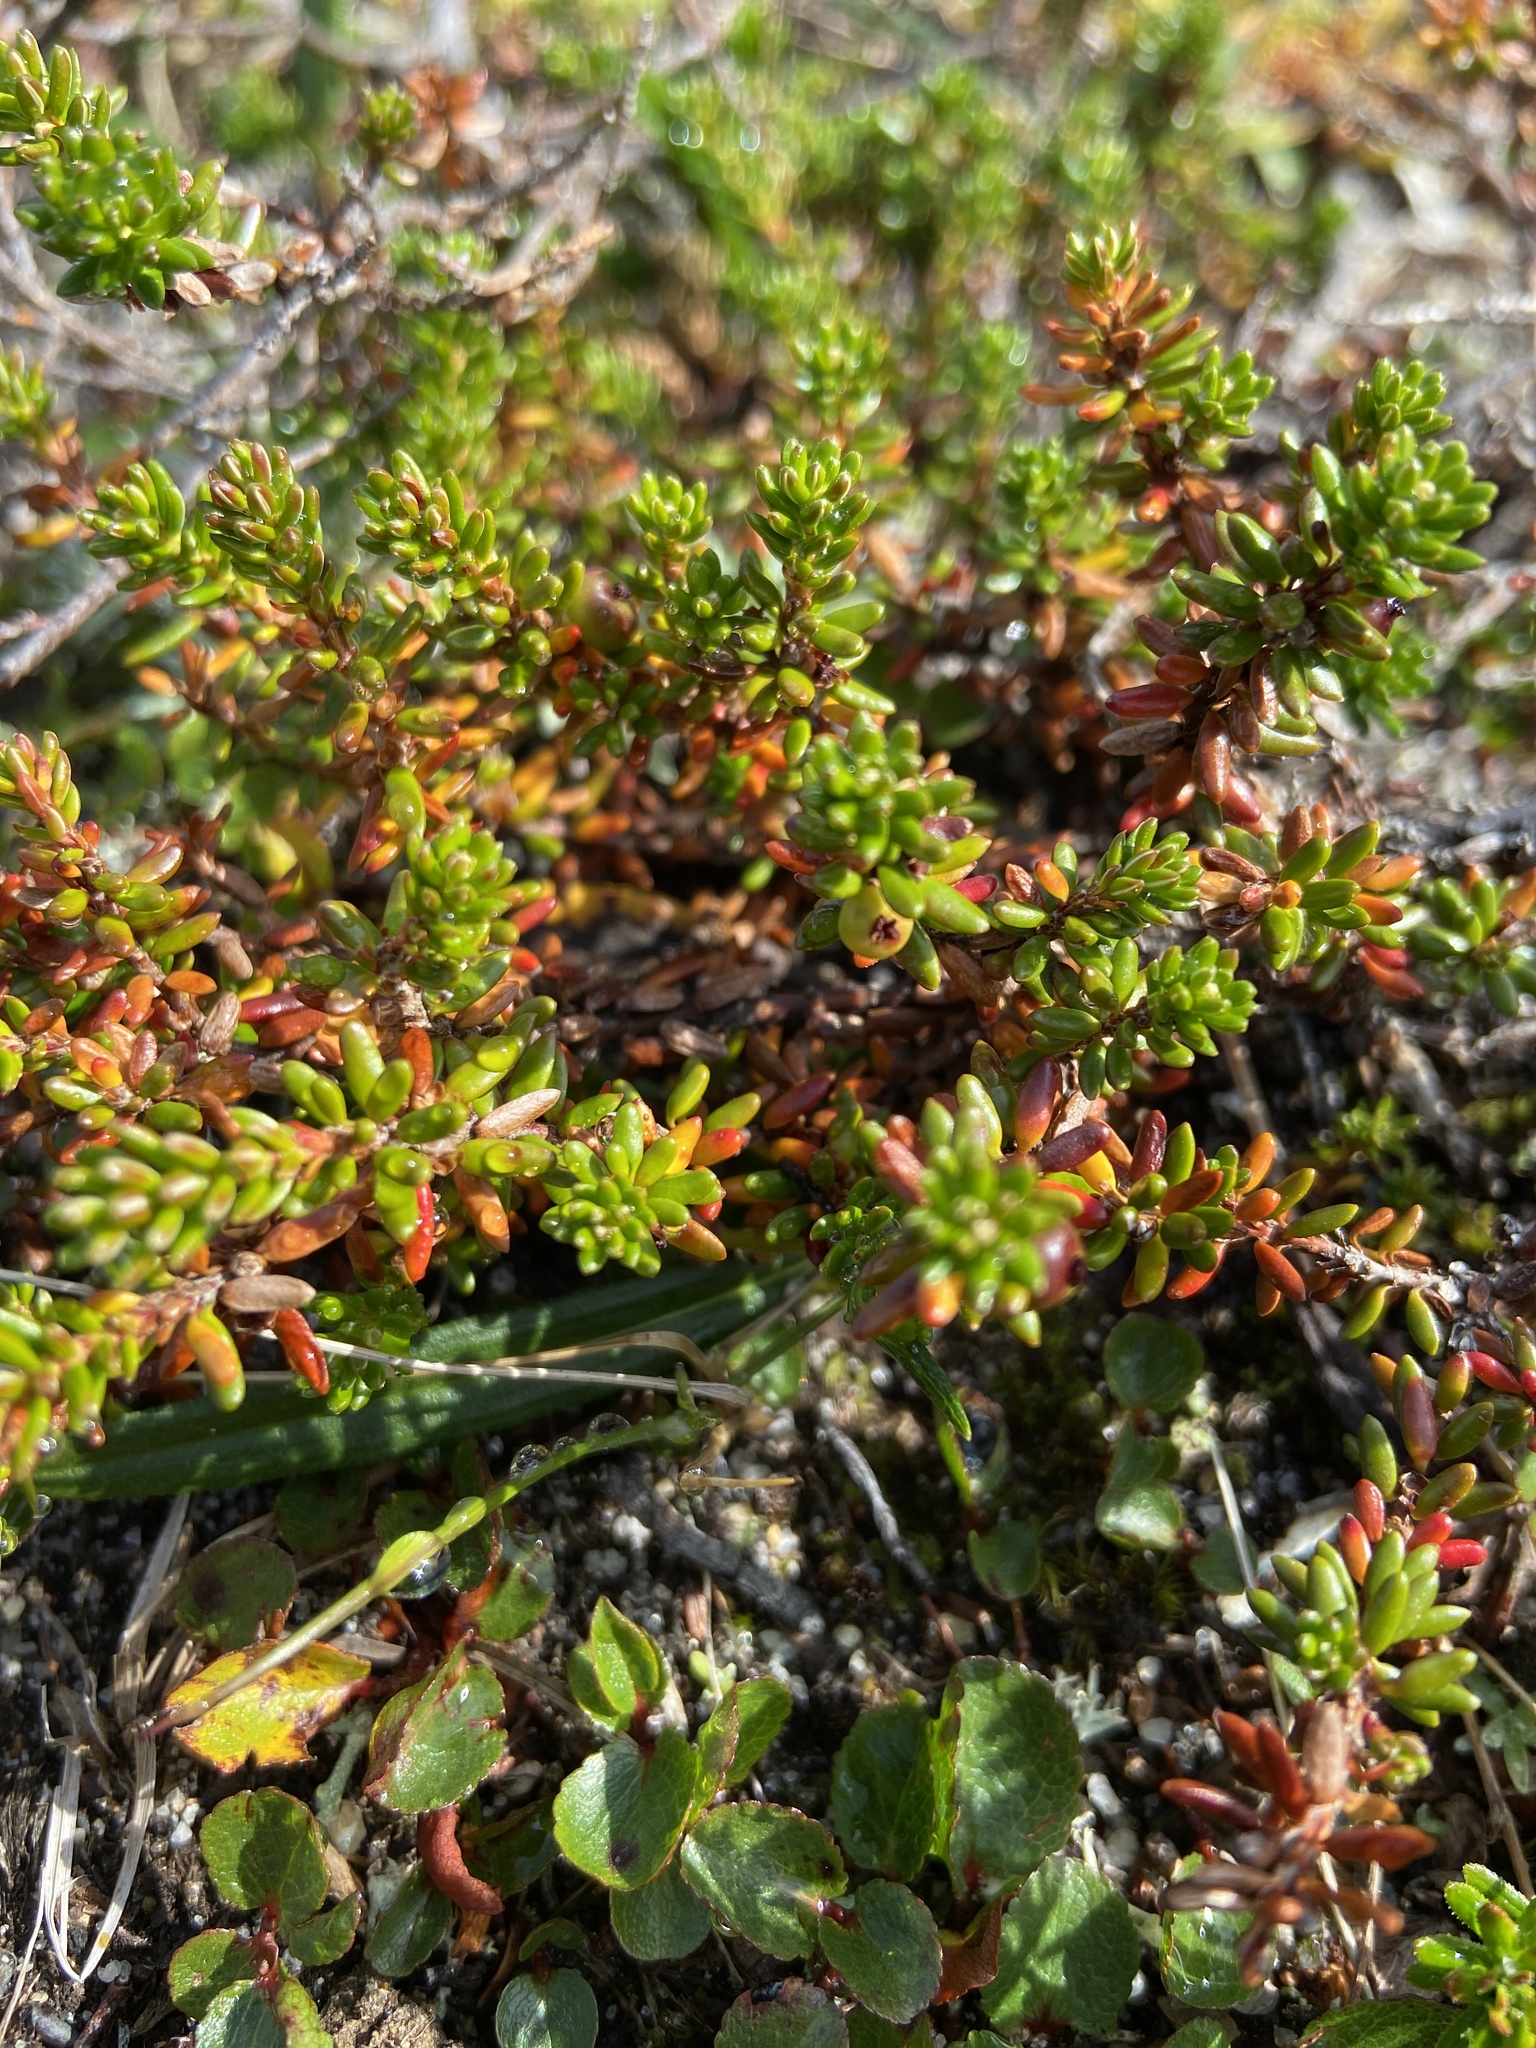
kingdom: Plantae
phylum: Tracheophyta
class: Magnoliopsida
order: Ericales
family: Ericaceae
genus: Empetrum
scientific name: Empetrum hermaphroditum
